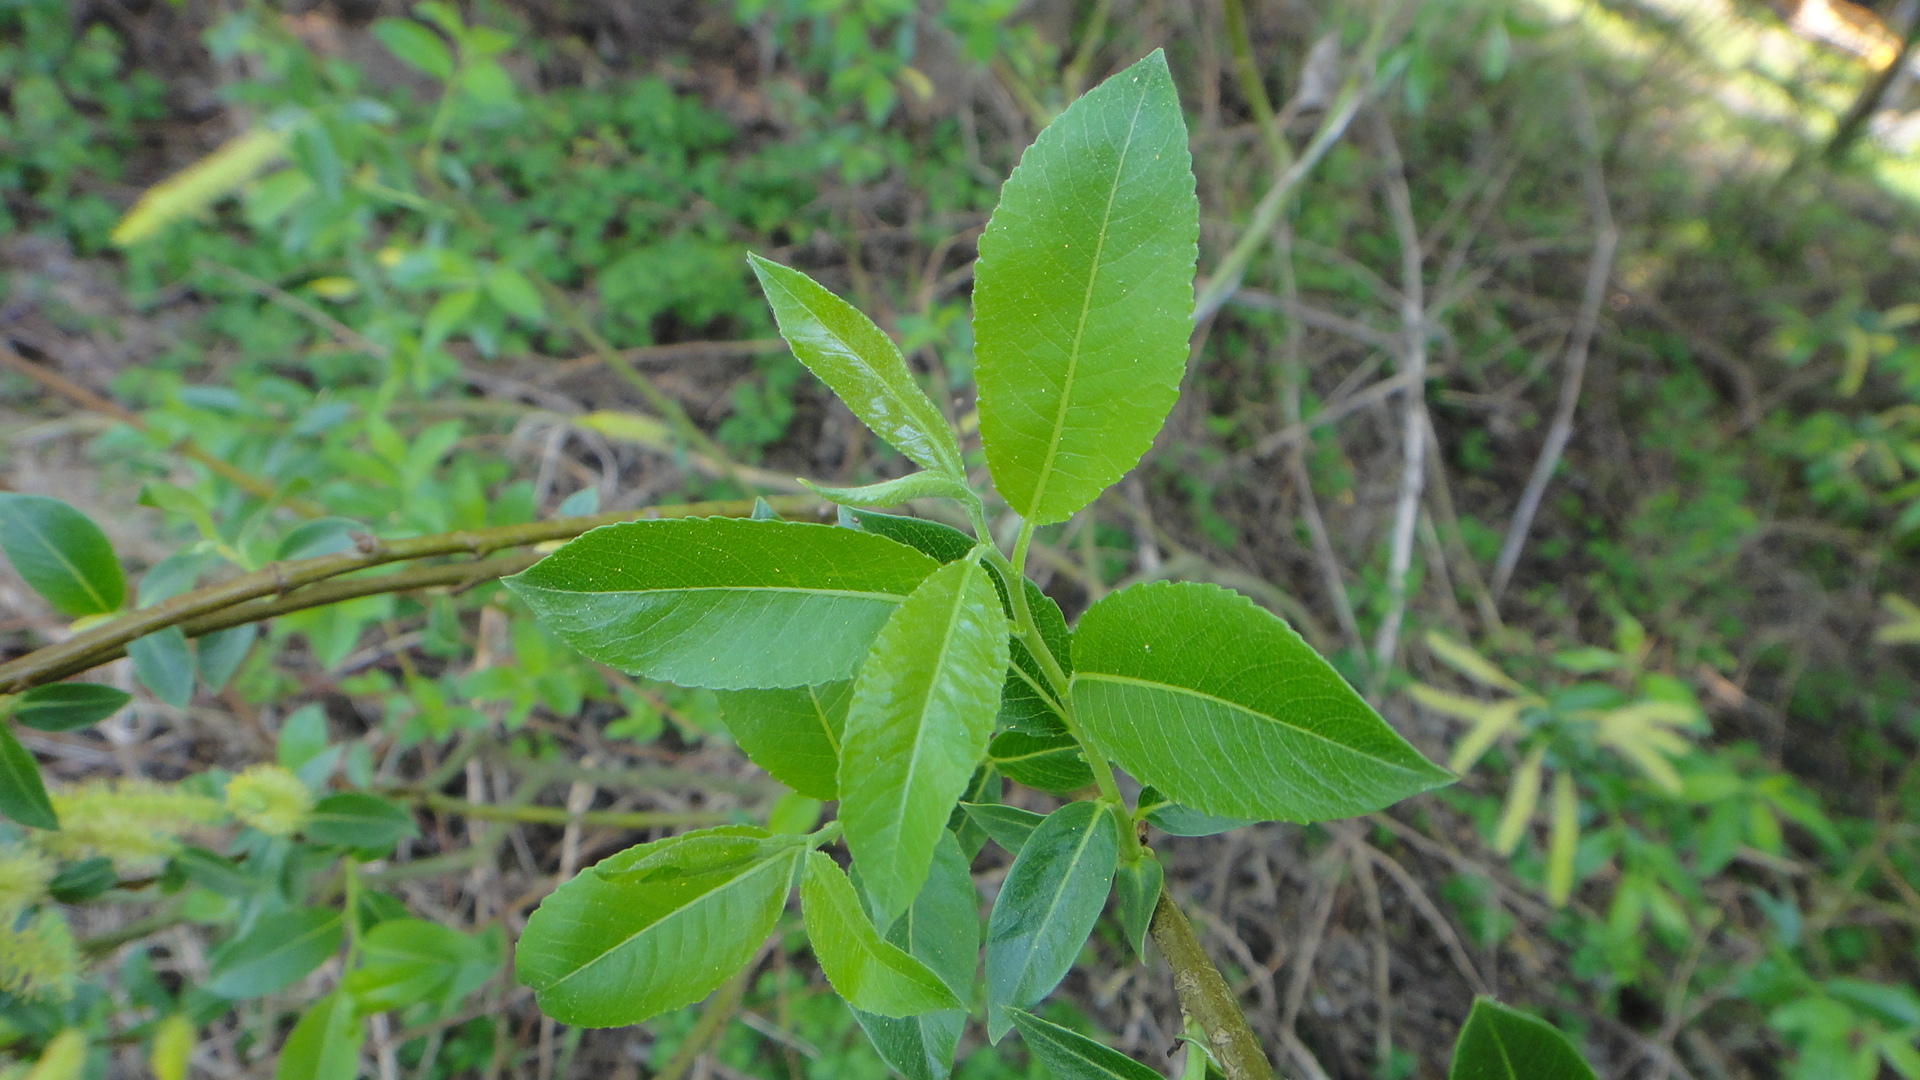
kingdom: Plantae
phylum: Tracheophyta
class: Magnoliopsida
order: Malpighiales
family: Salicaceae
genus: Salix
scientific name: Salix triandra
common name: Almond willow
